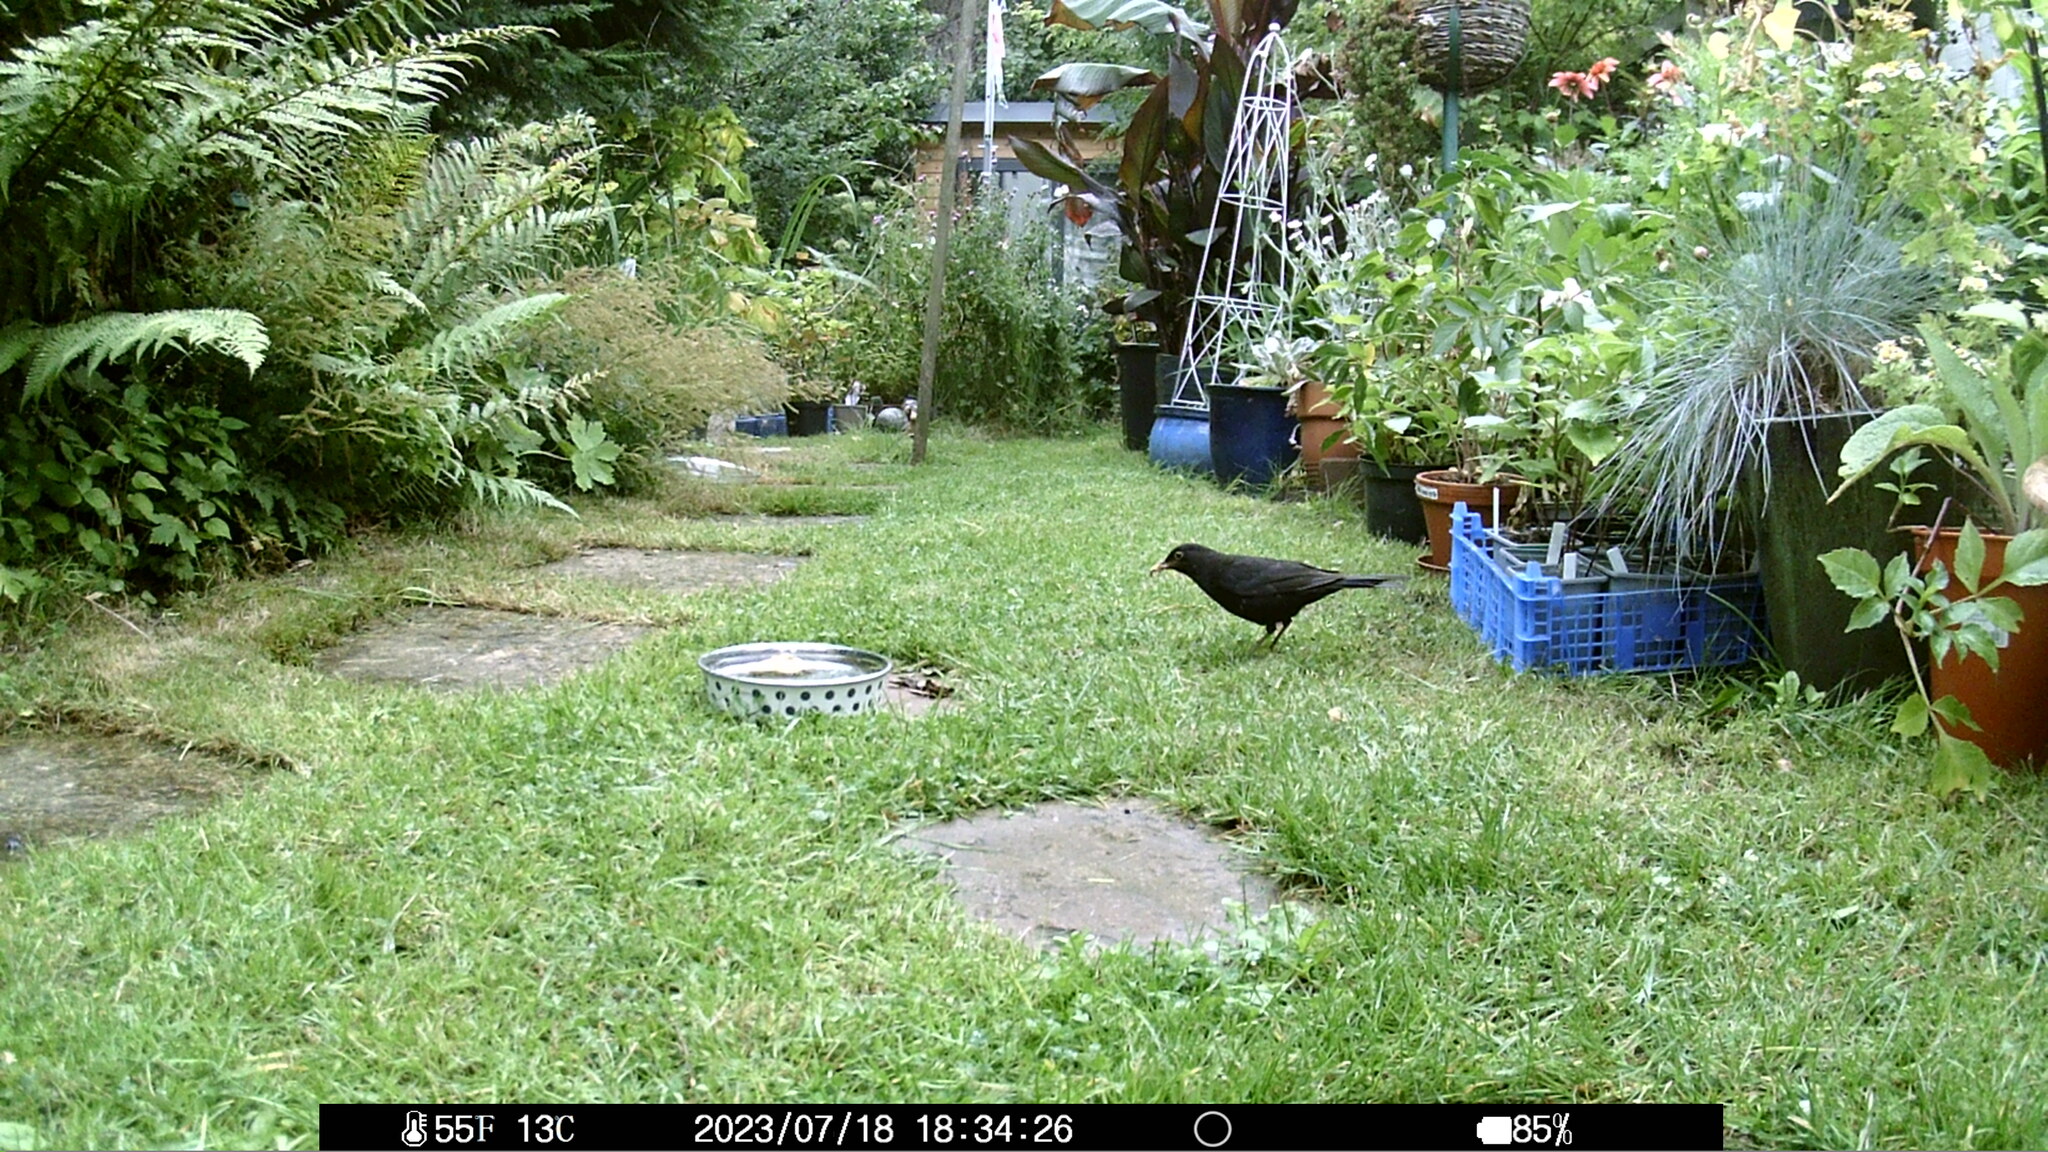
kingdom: Animalia
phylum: Chordata
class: Aves
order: Passeriformes
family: Turdidae
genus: Turdus
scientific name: Turdus merula
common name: Common blackbird
